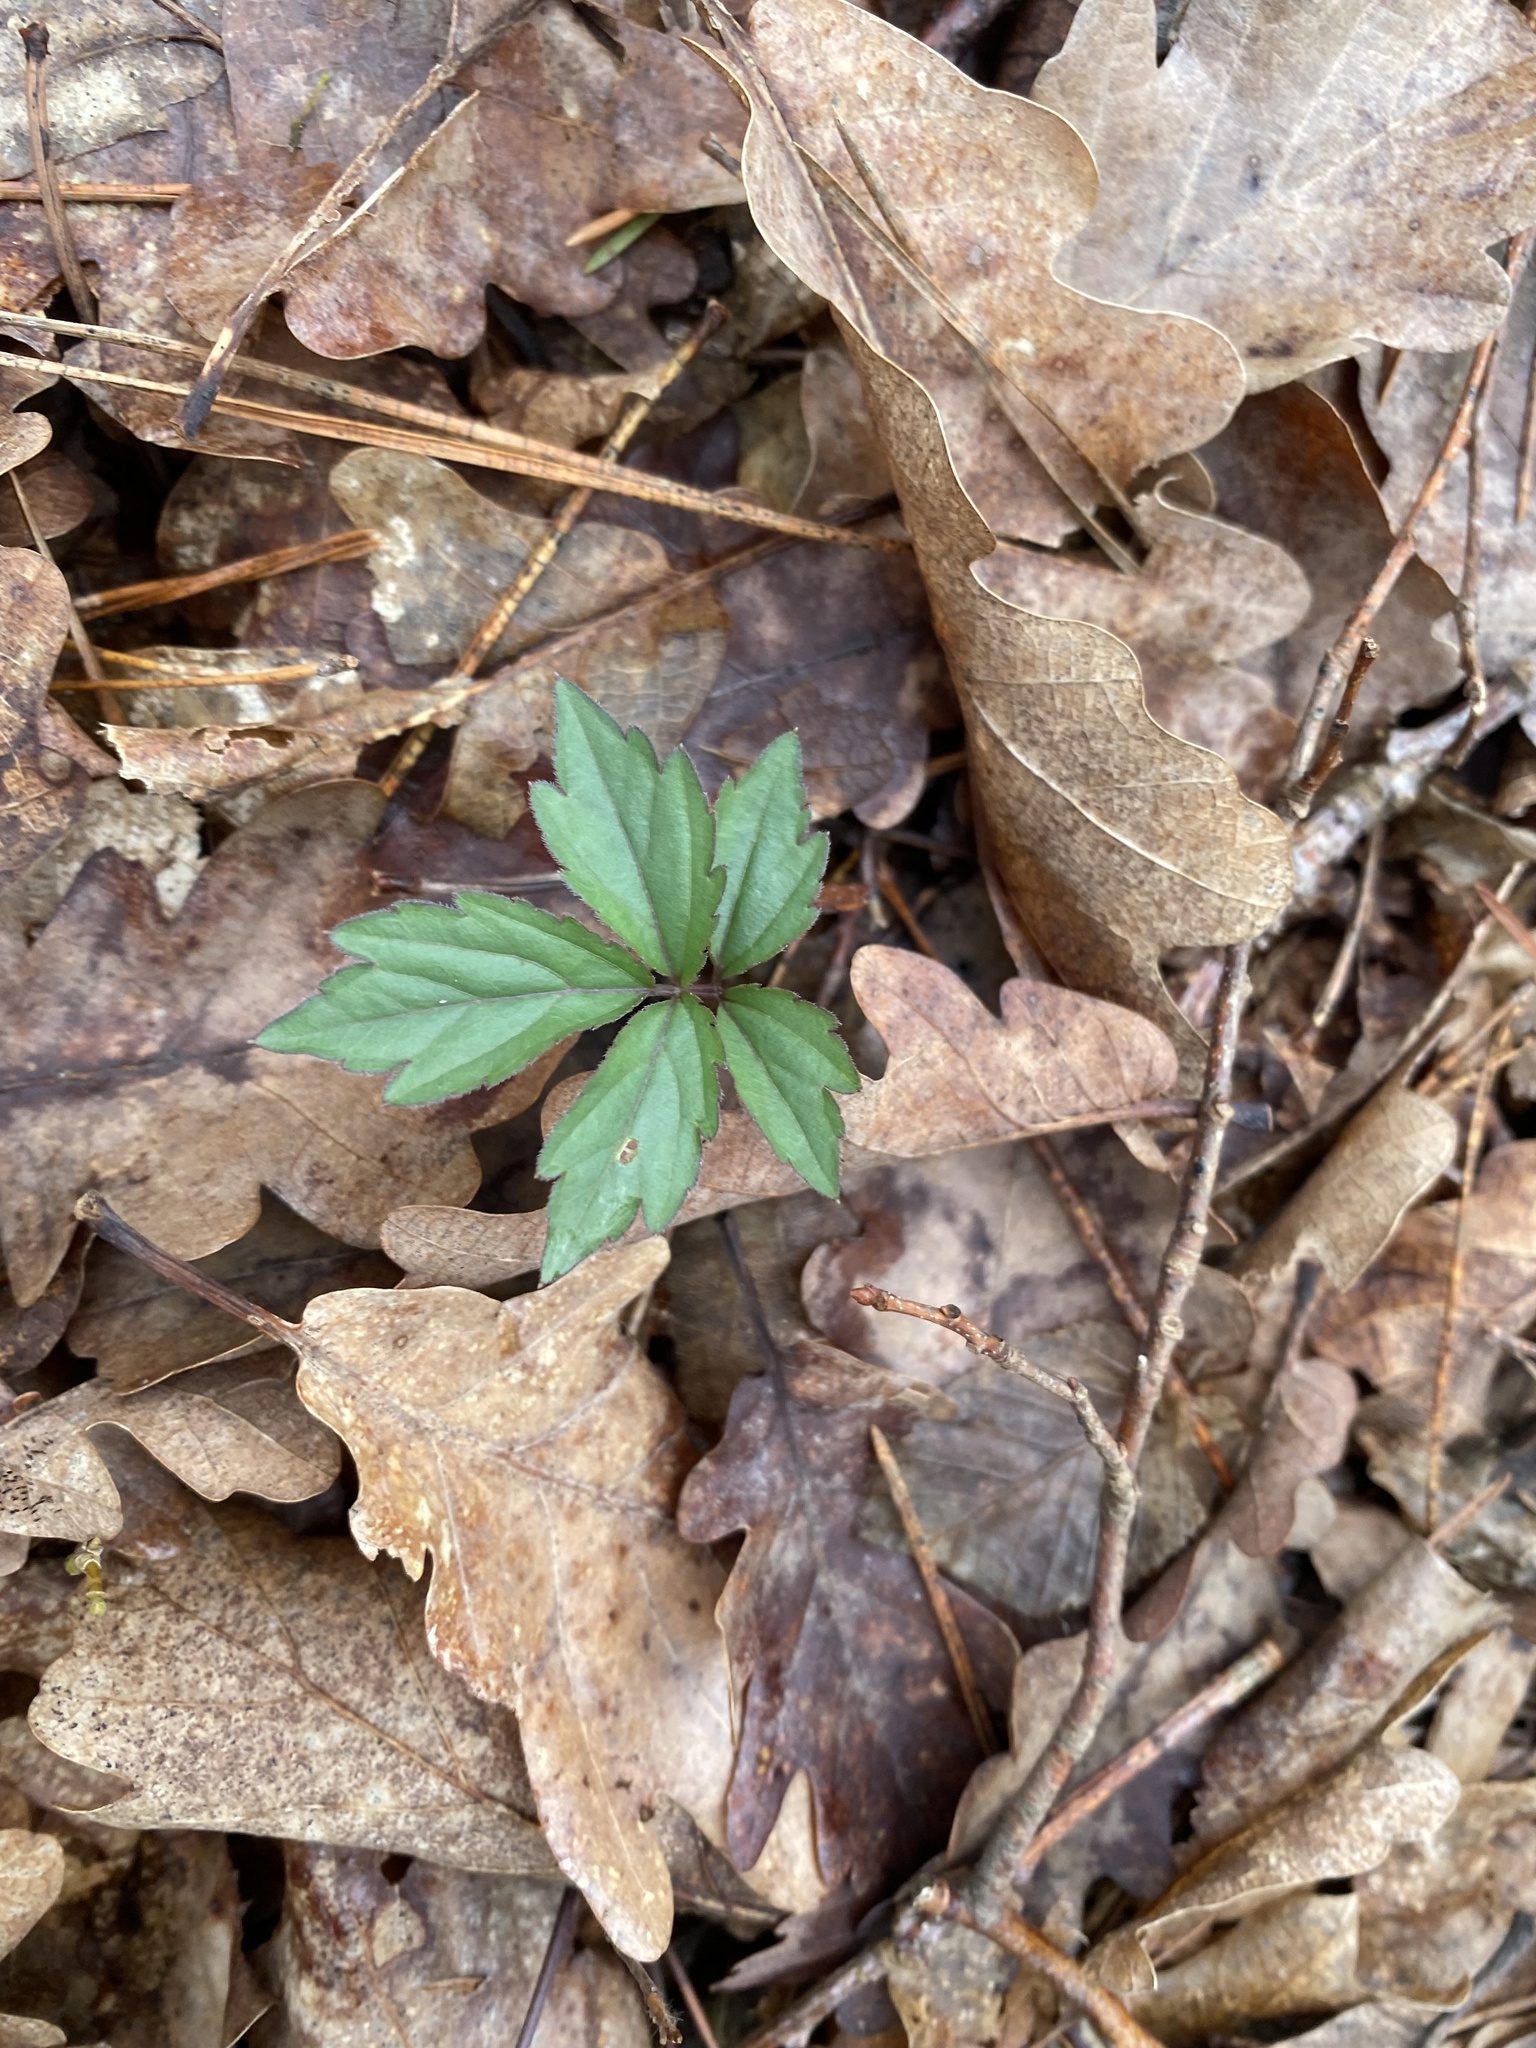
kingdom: Plantae
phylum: Tracheophyta
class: Magnoliopsida
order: Brassicales
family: Brassicaceae
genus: Cardamine
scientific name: Cardamine quinquefolia
